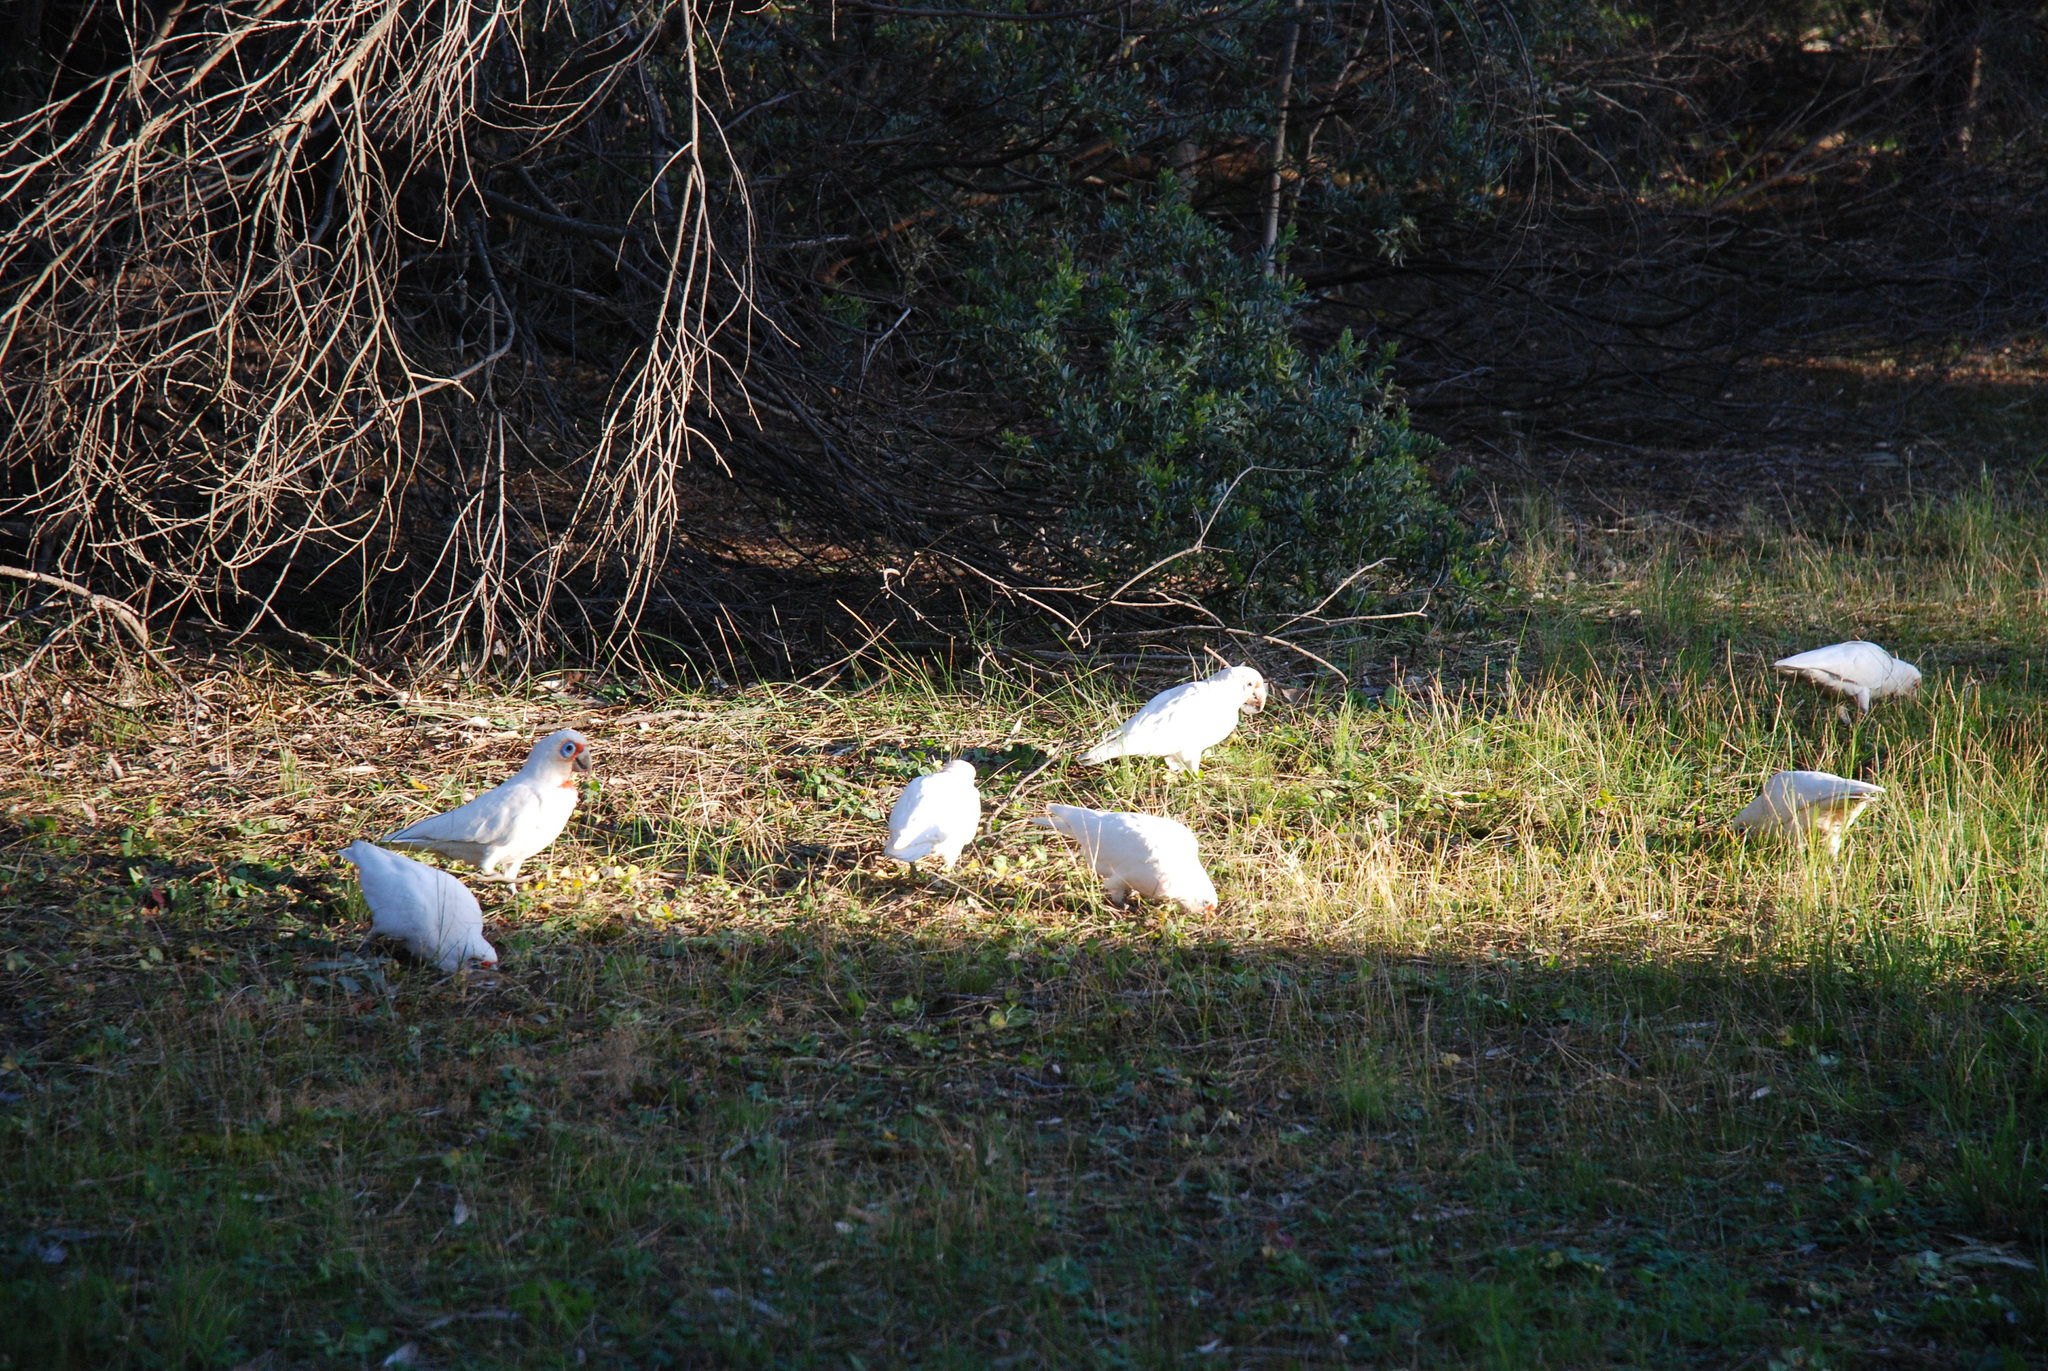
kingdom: Animalia
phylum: Chordata
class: Aves
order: Psittaciformes
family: Psittacidae
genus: Cacatua
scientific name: Cacatua tenuirostris
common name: Long-billed corella
